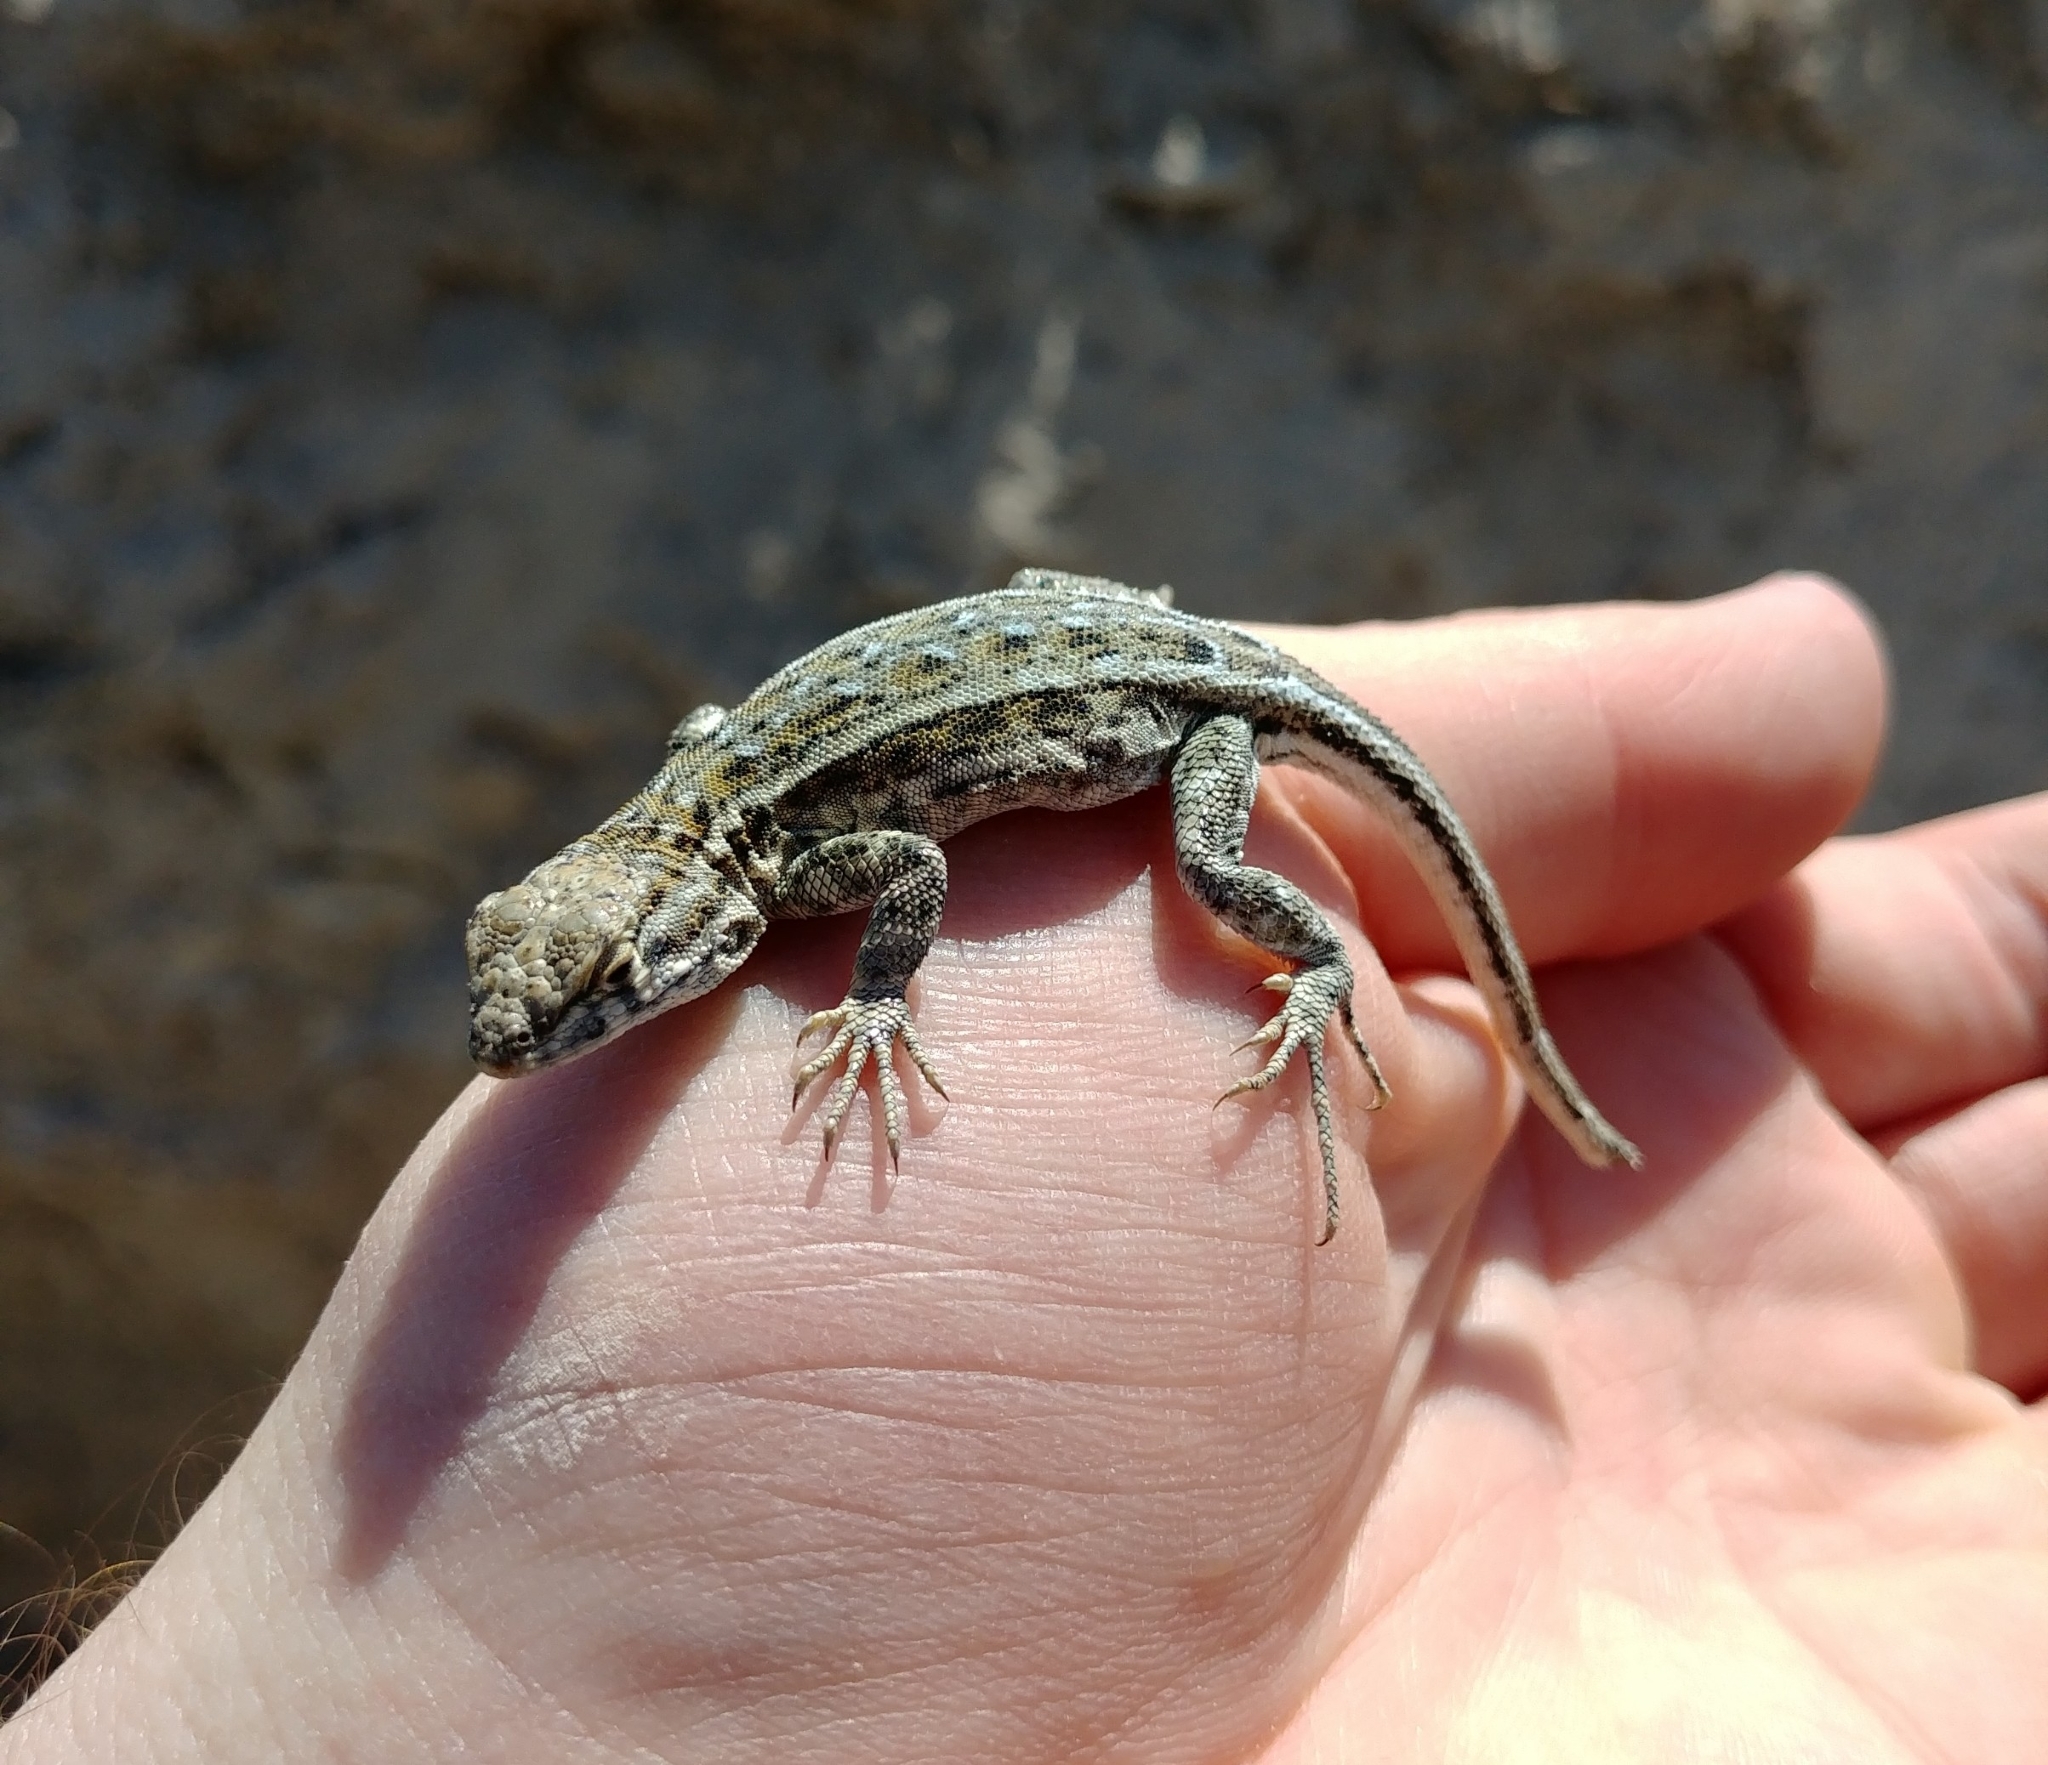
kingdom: Animalia
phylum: Chordata
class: Squamata
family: Phrynosomatidae
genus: Uta
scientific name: Uta stansburiana
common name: Side-blotched lizard
